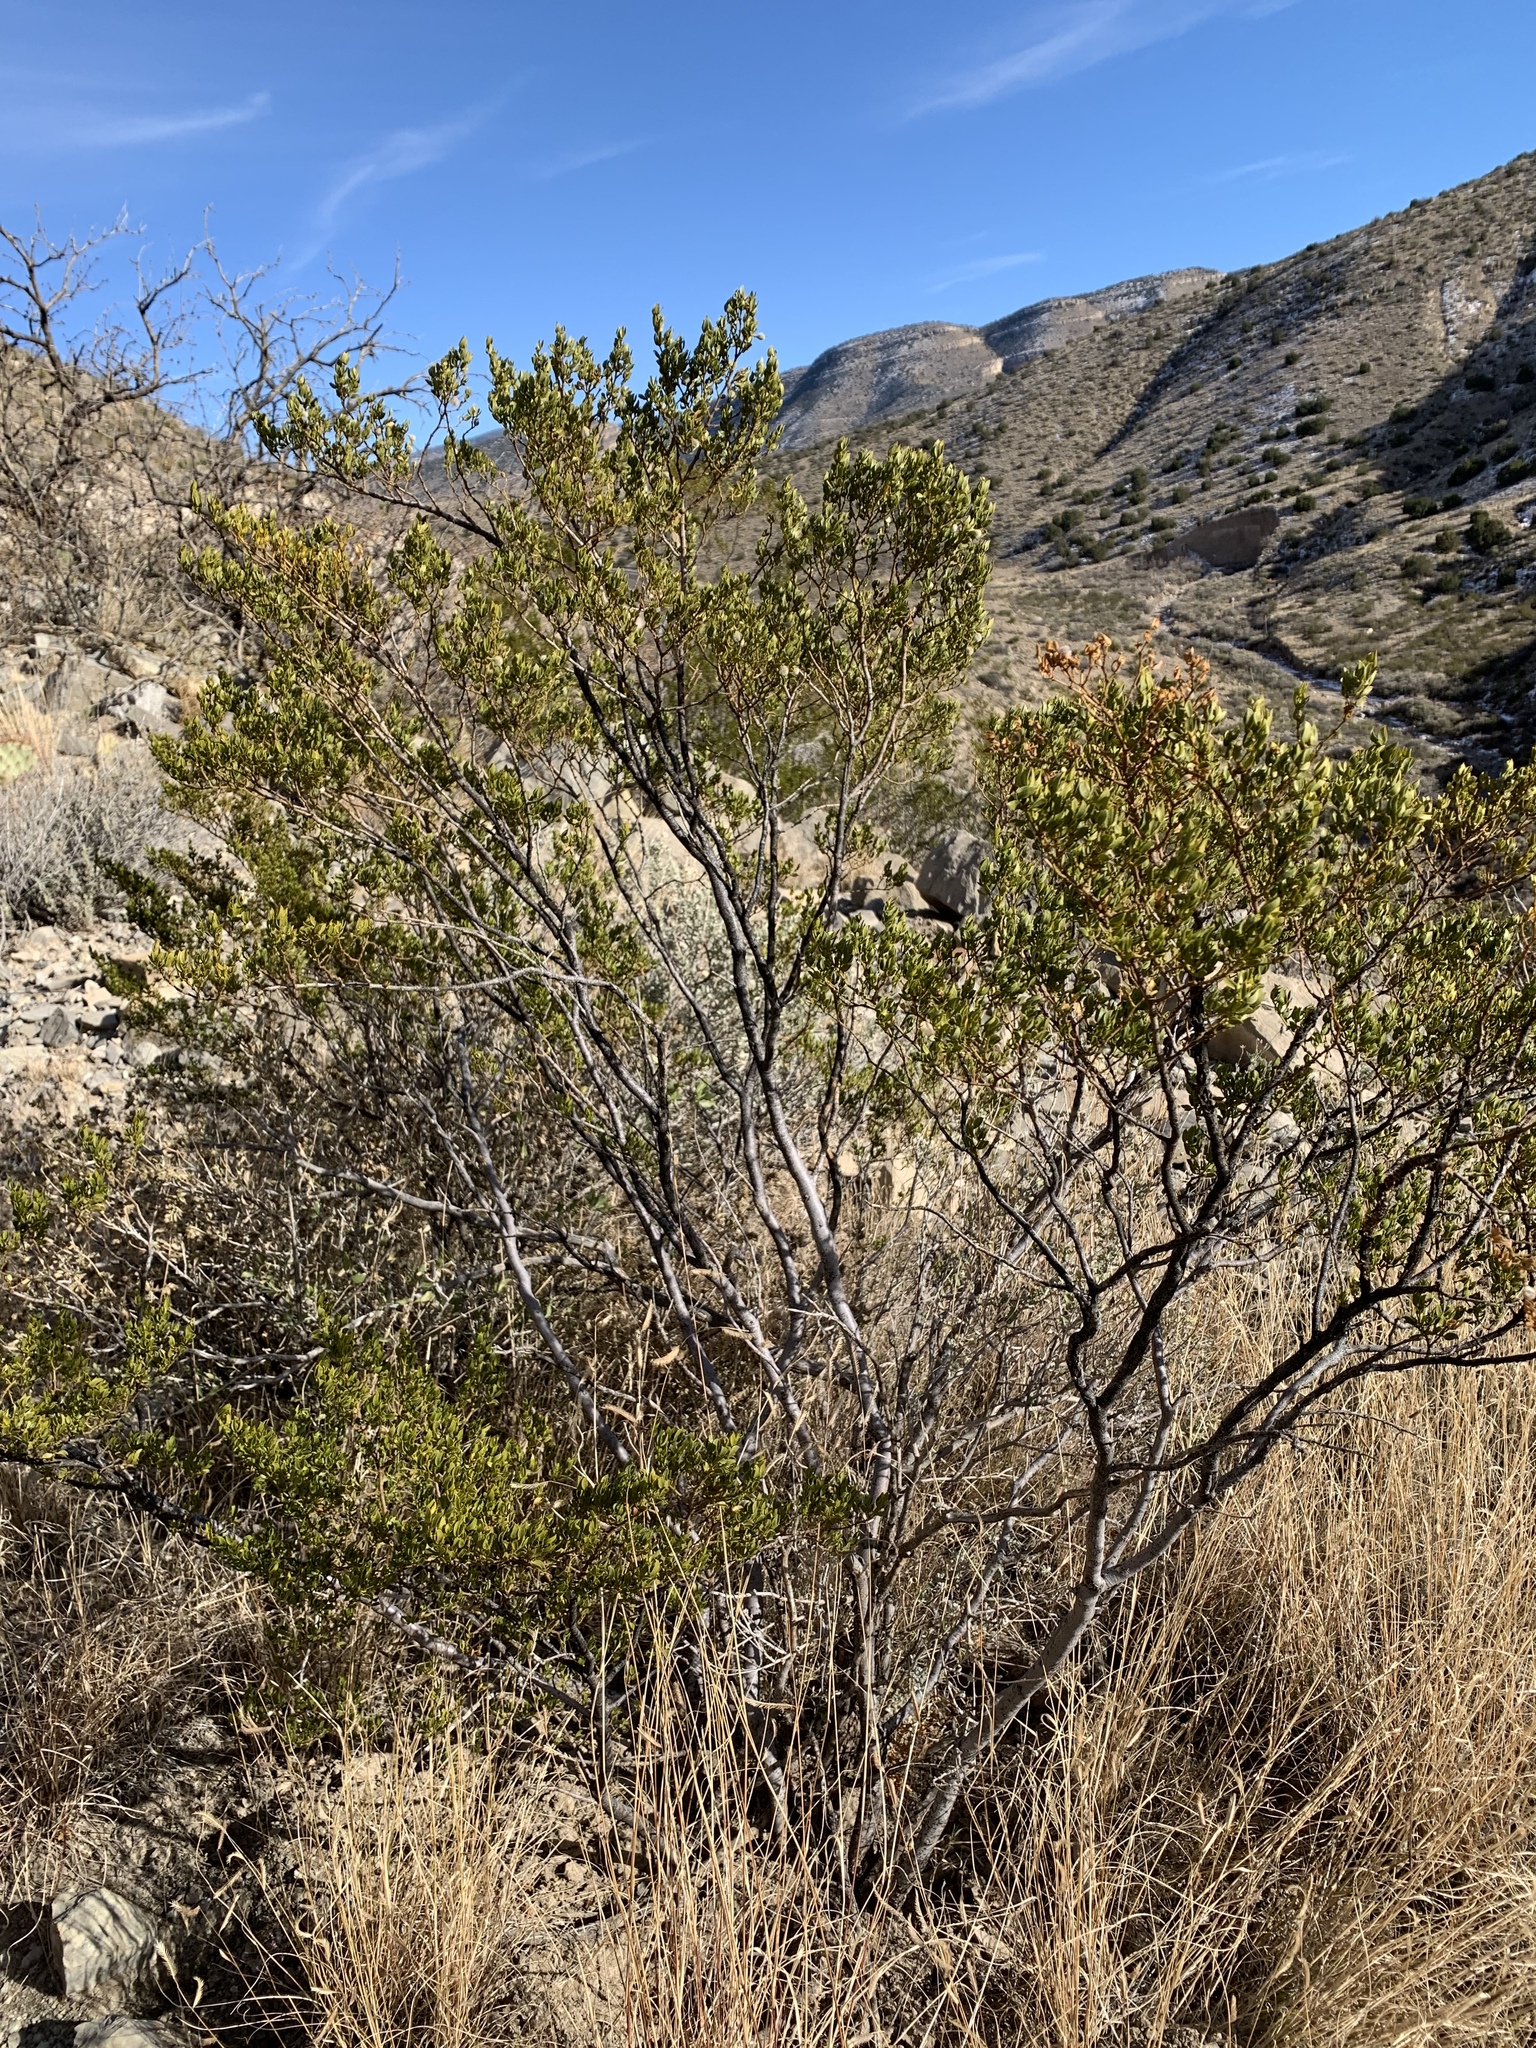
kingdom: Plantae
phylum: Tracheophyta
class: Magnoliopsida
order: Zygophyllales
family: Zygophyllaceae
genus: Larrea
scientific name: Larrea tridentata
